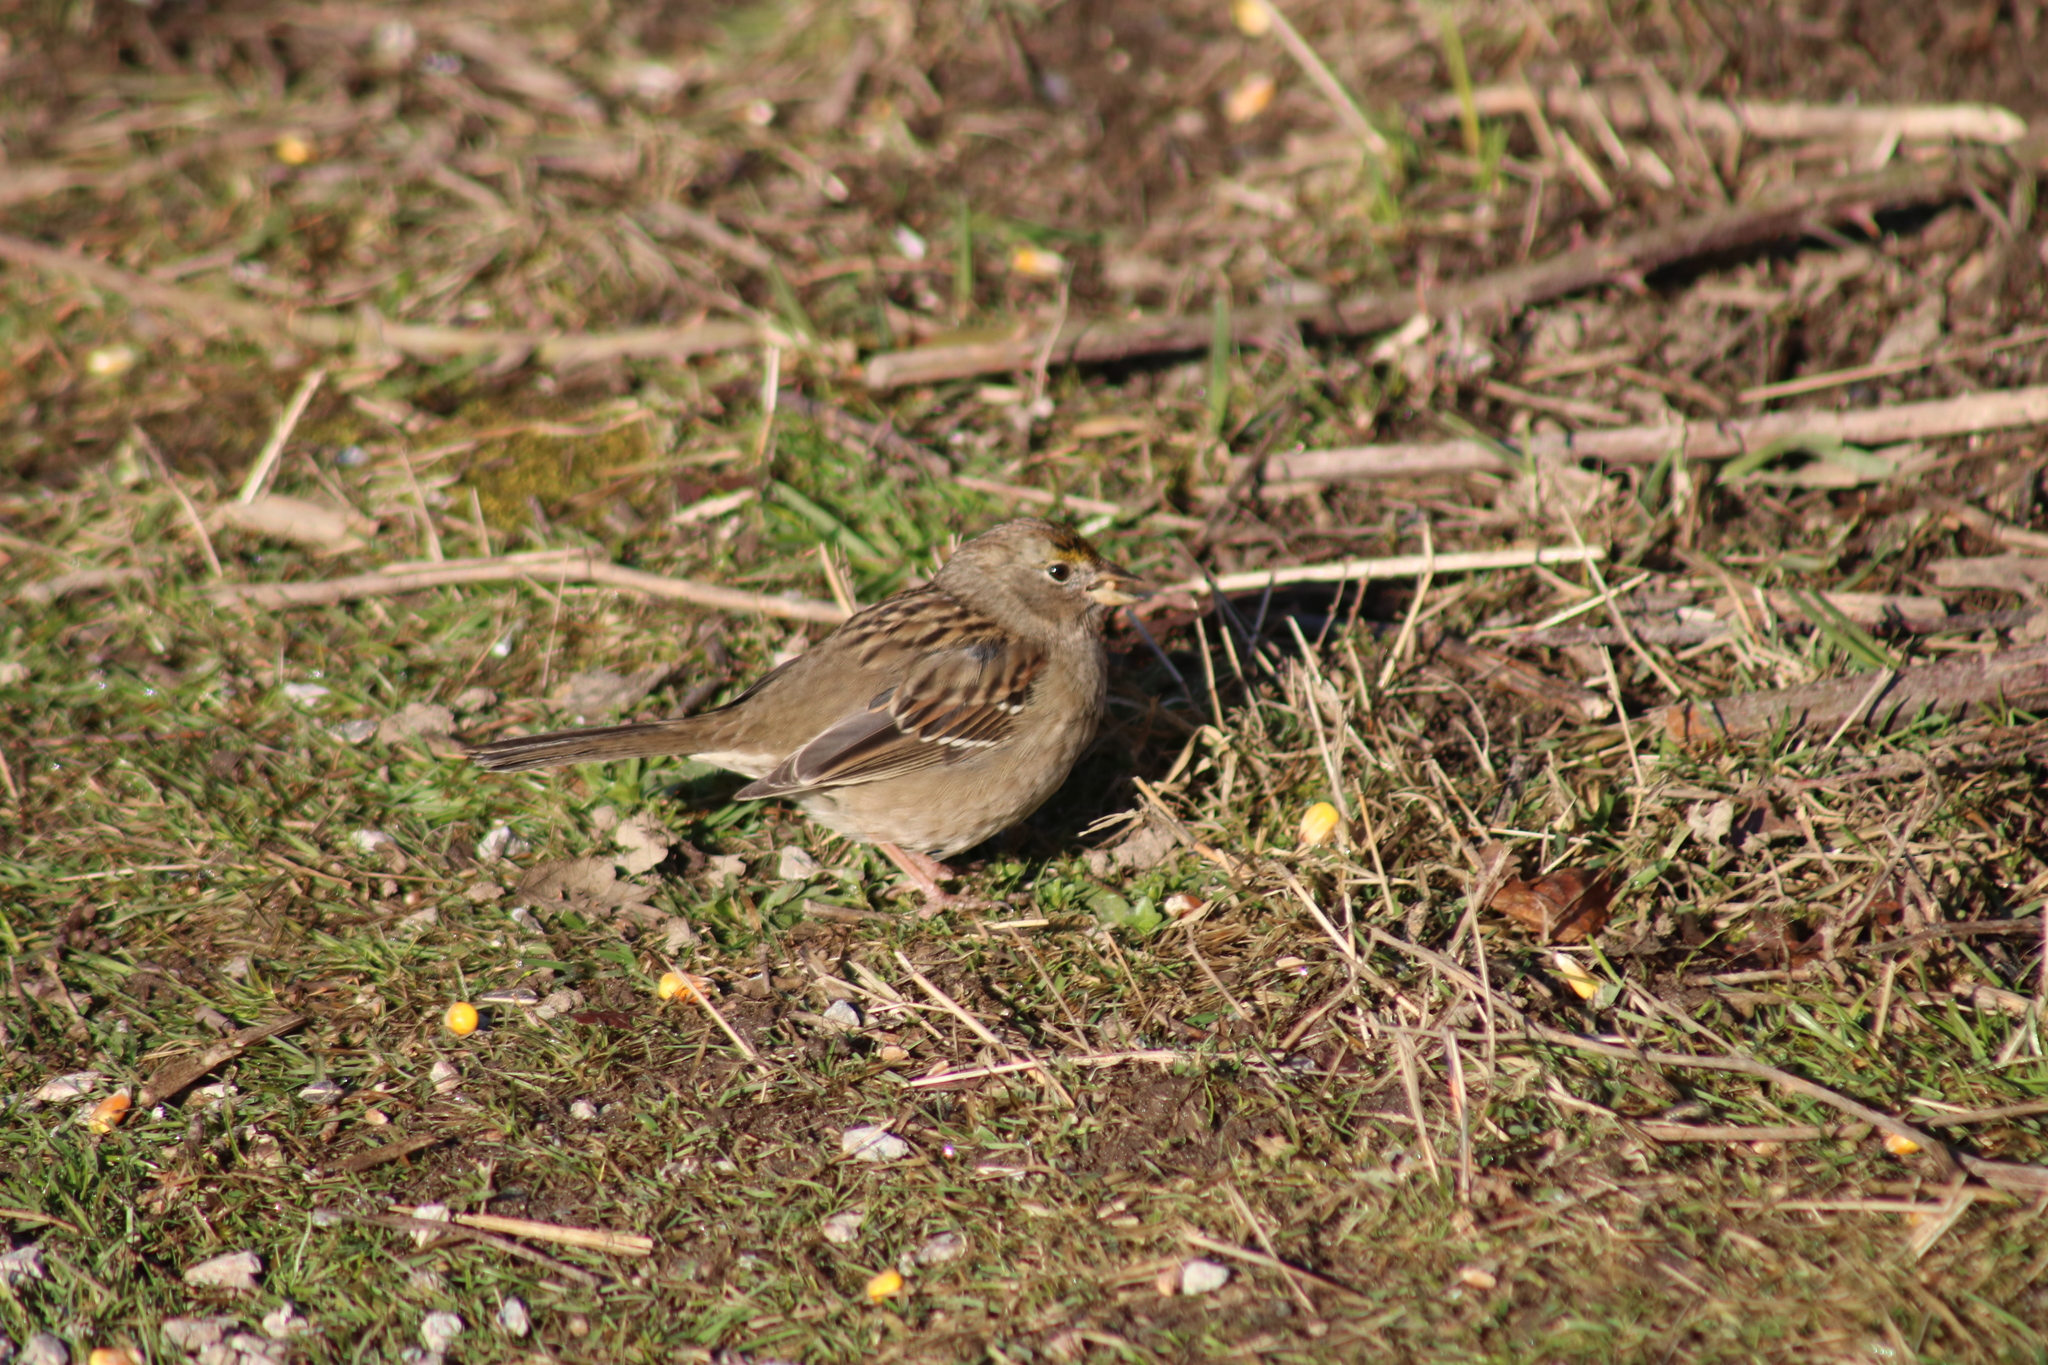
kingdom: Animalia
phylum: Chordata
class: Aves
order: Passeriformes
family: Passerellidae
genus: Zonotrichia
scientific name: Zonotrichia atricapilla
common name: Golden-crowned sparrow
